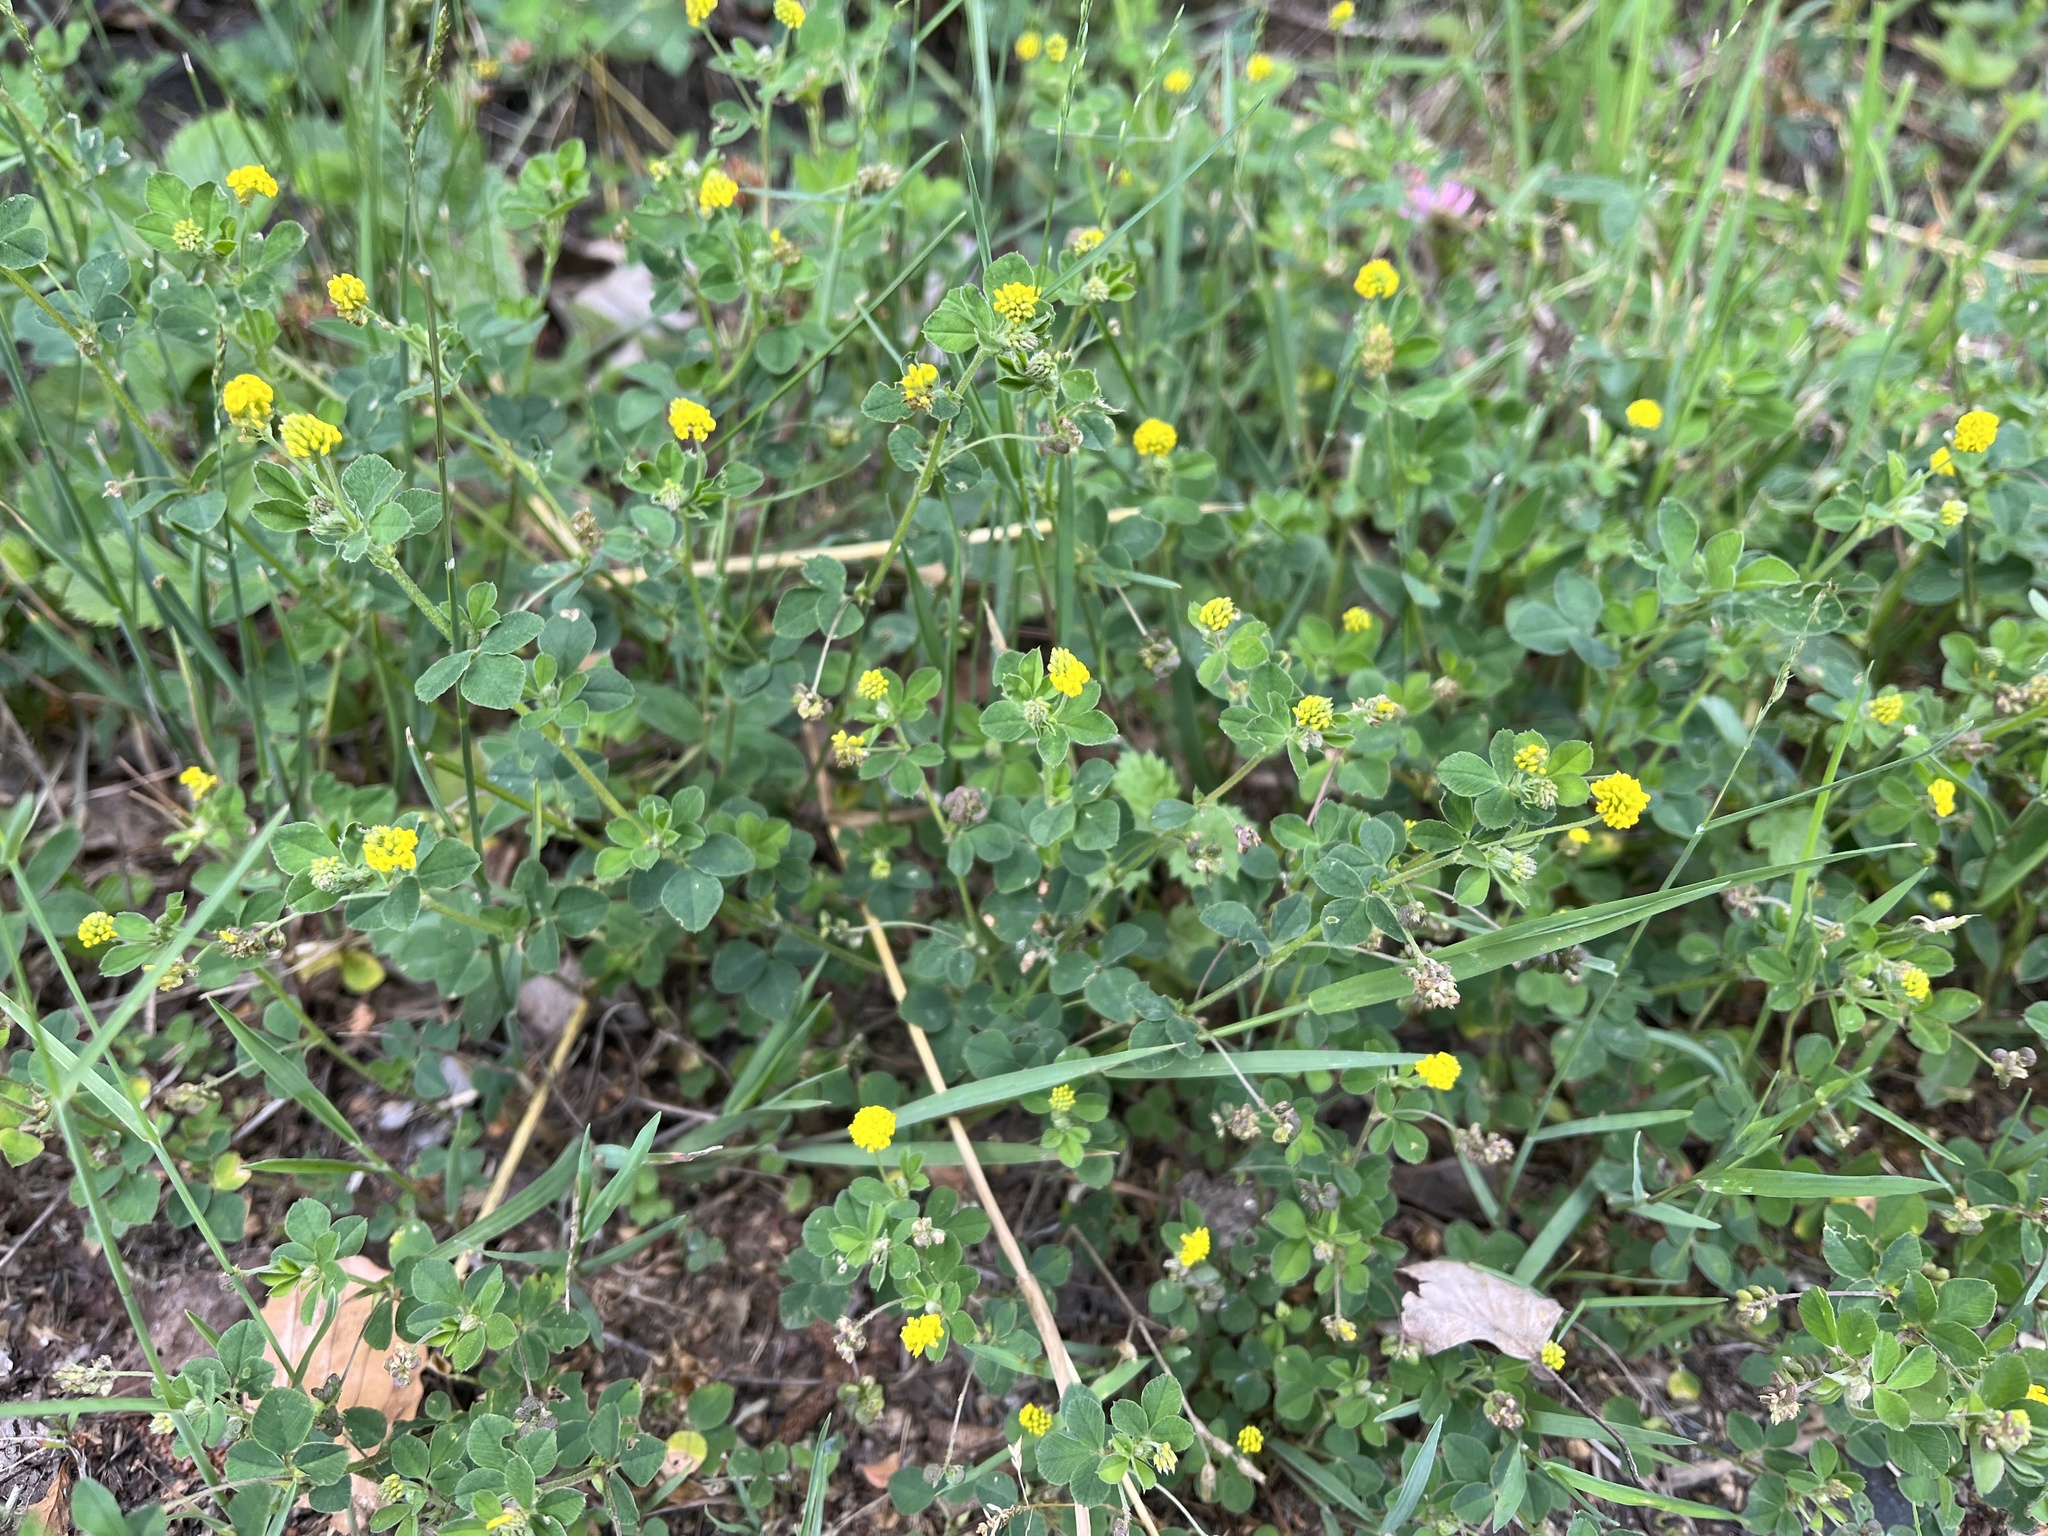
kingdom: Plantae
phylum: Tracheophyta
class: Magnoliopsida
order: Fabales
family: Fabaceae
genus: Medicago
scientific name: Medicago lupulina
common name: Black medick
